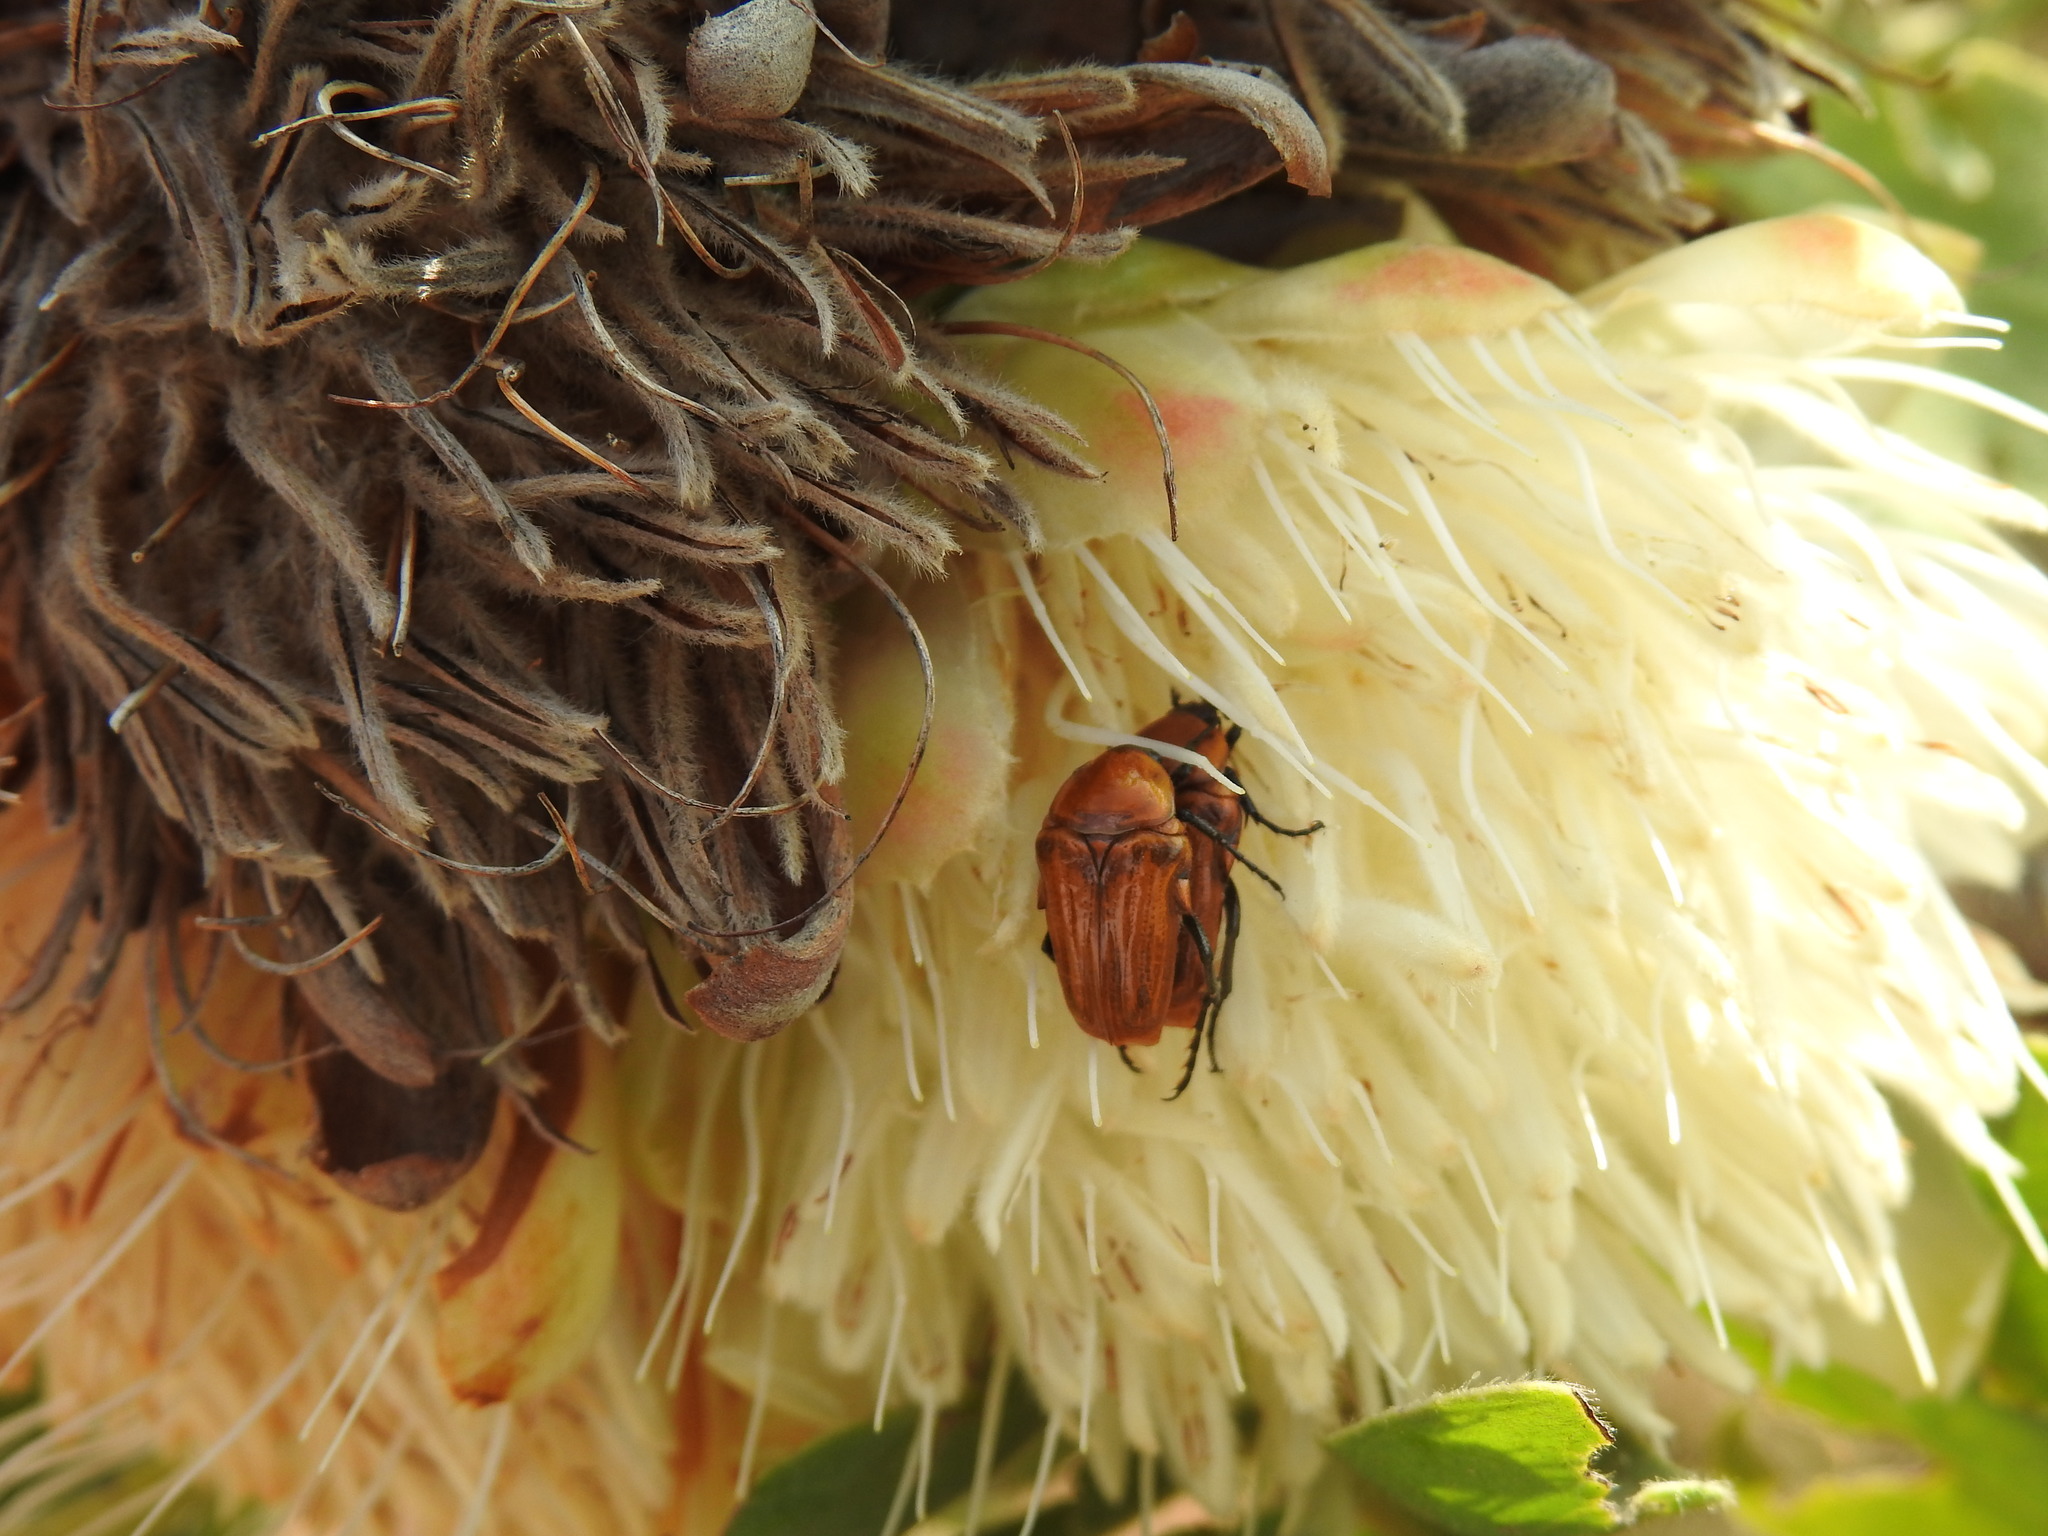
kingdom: Animalia
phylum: Arthropoda
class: Insecta
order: Coleoptera
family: Scarabaeidae
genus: Leucocelis
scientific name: Leucocelis rubra
